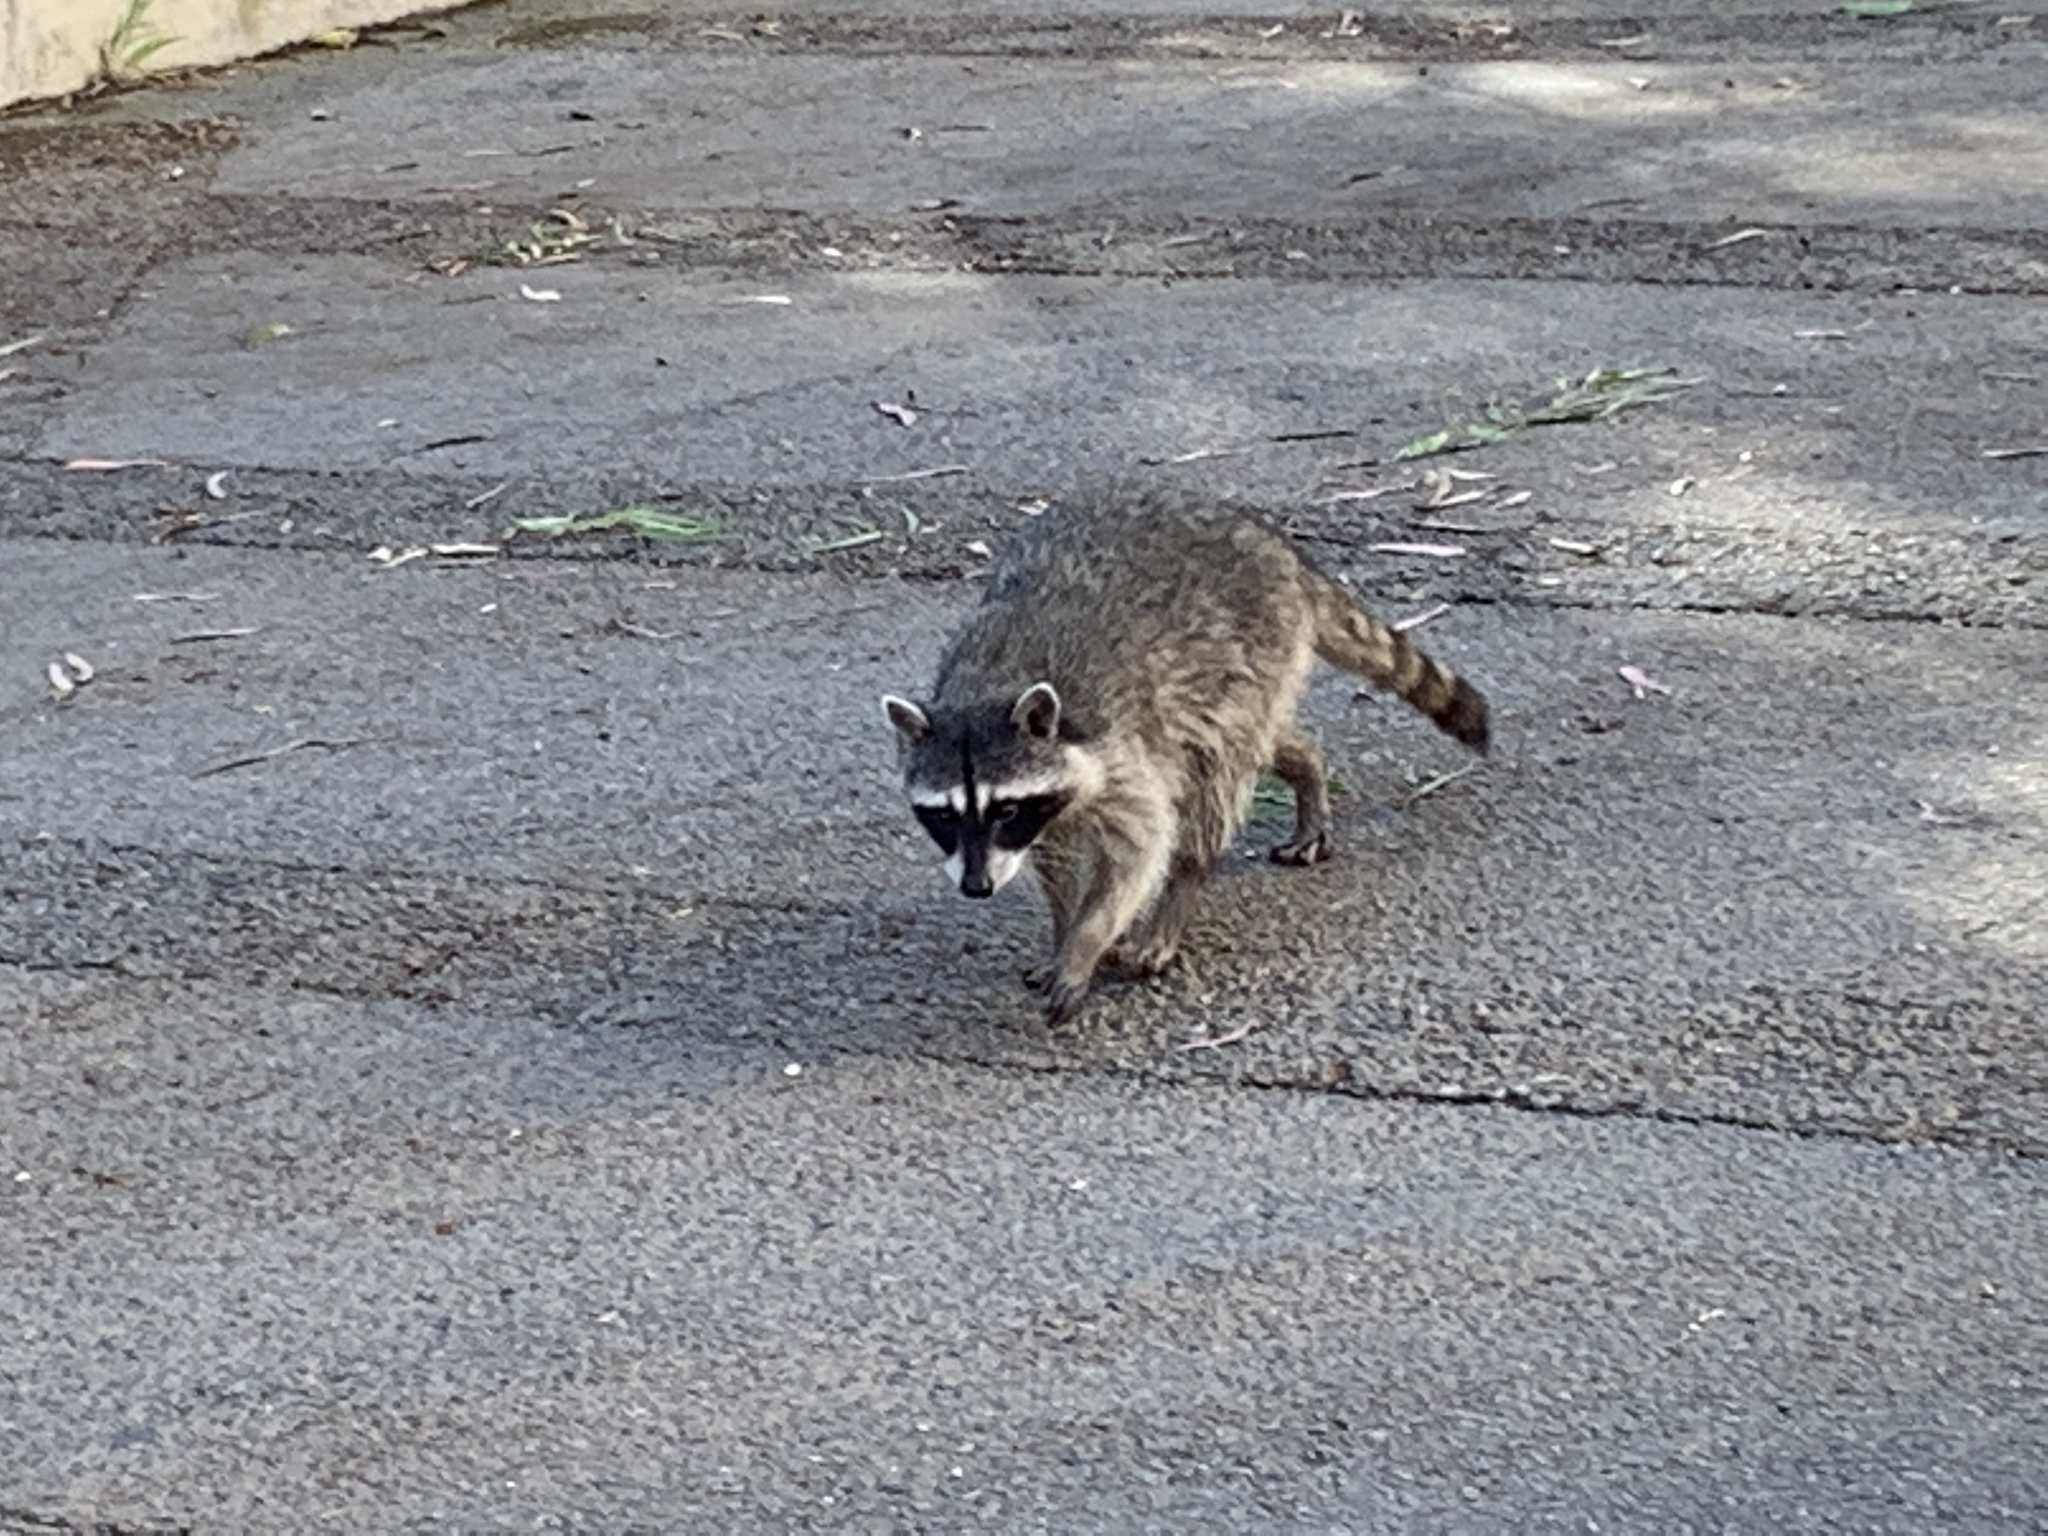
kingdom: Animalia
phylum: Chordata
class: Mammalia
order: Carnivora
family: Procyonidae
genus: Procyon
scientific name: Procyon lotor
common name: Raccoon
